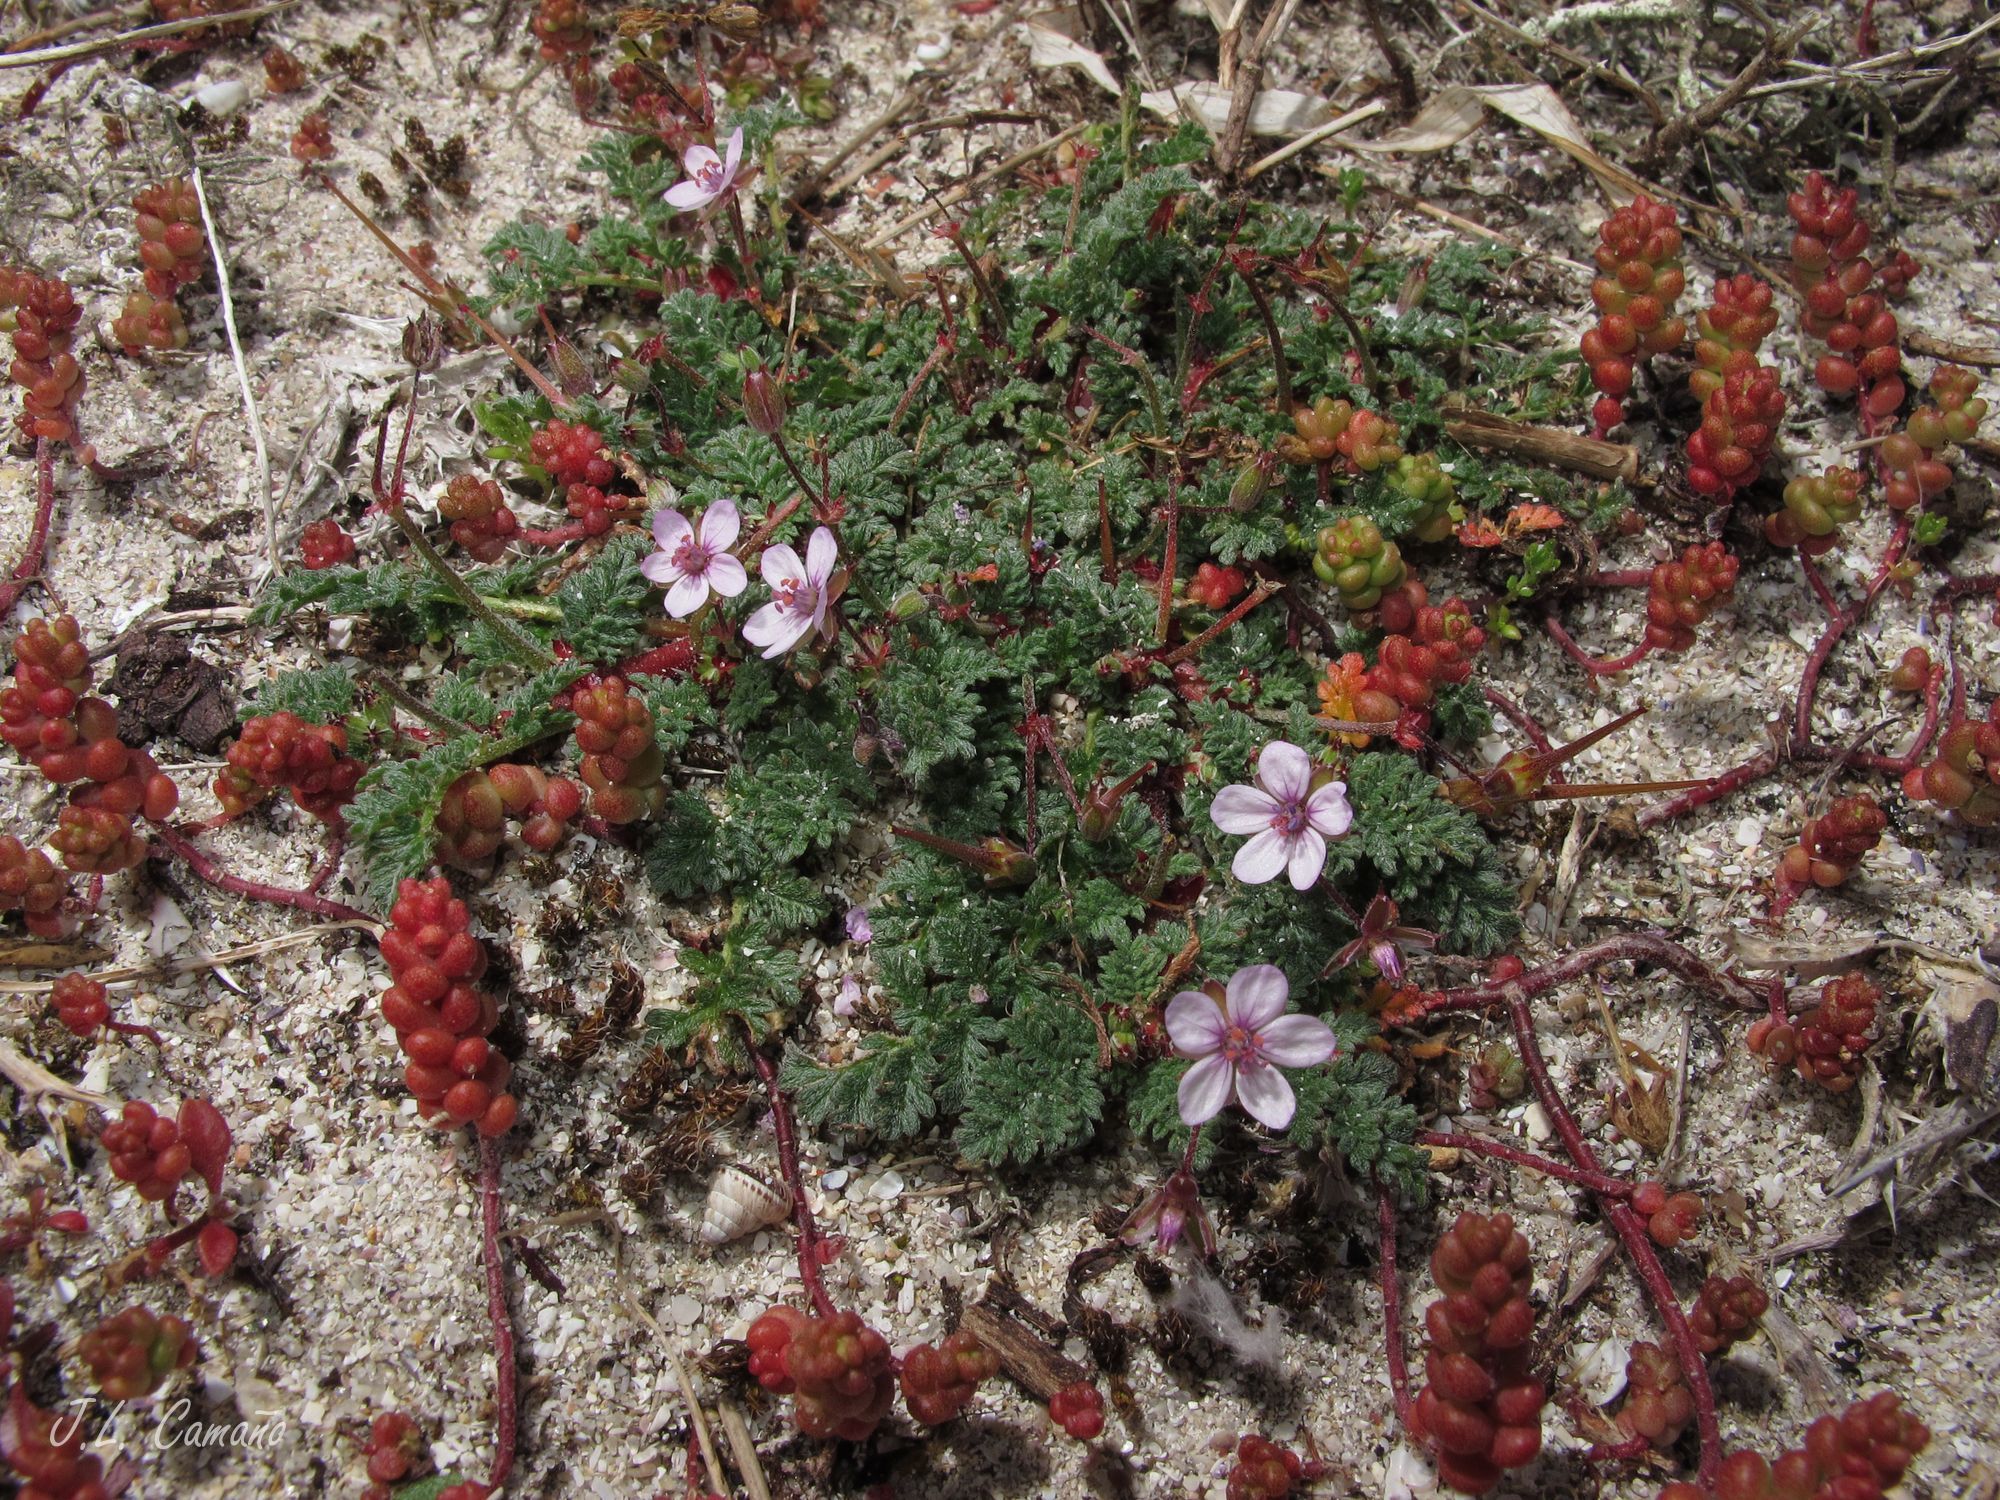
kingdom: Plantae
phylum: Tracheophyta
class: Magnoliopsida
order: Geraniales
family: Geraniaceae
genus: Erodium
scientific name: Erodium cicutarium
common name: Common stork's-bill
